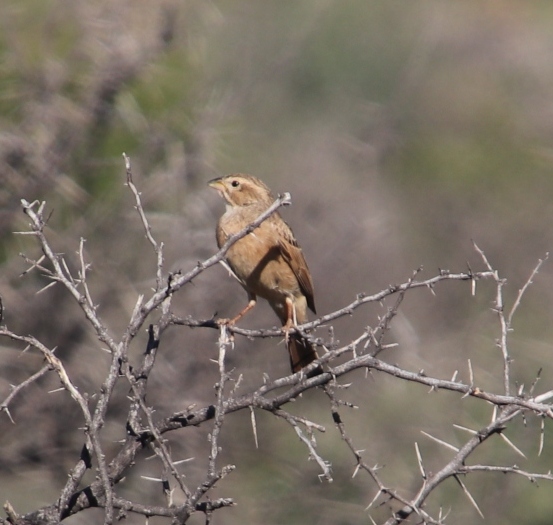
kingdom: Animalia
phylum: Chordata
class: Aves
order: Passeriformes
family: Emberizidae
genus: Emberiza
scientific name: Emberiza impetuani
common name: Lark-like bunting
